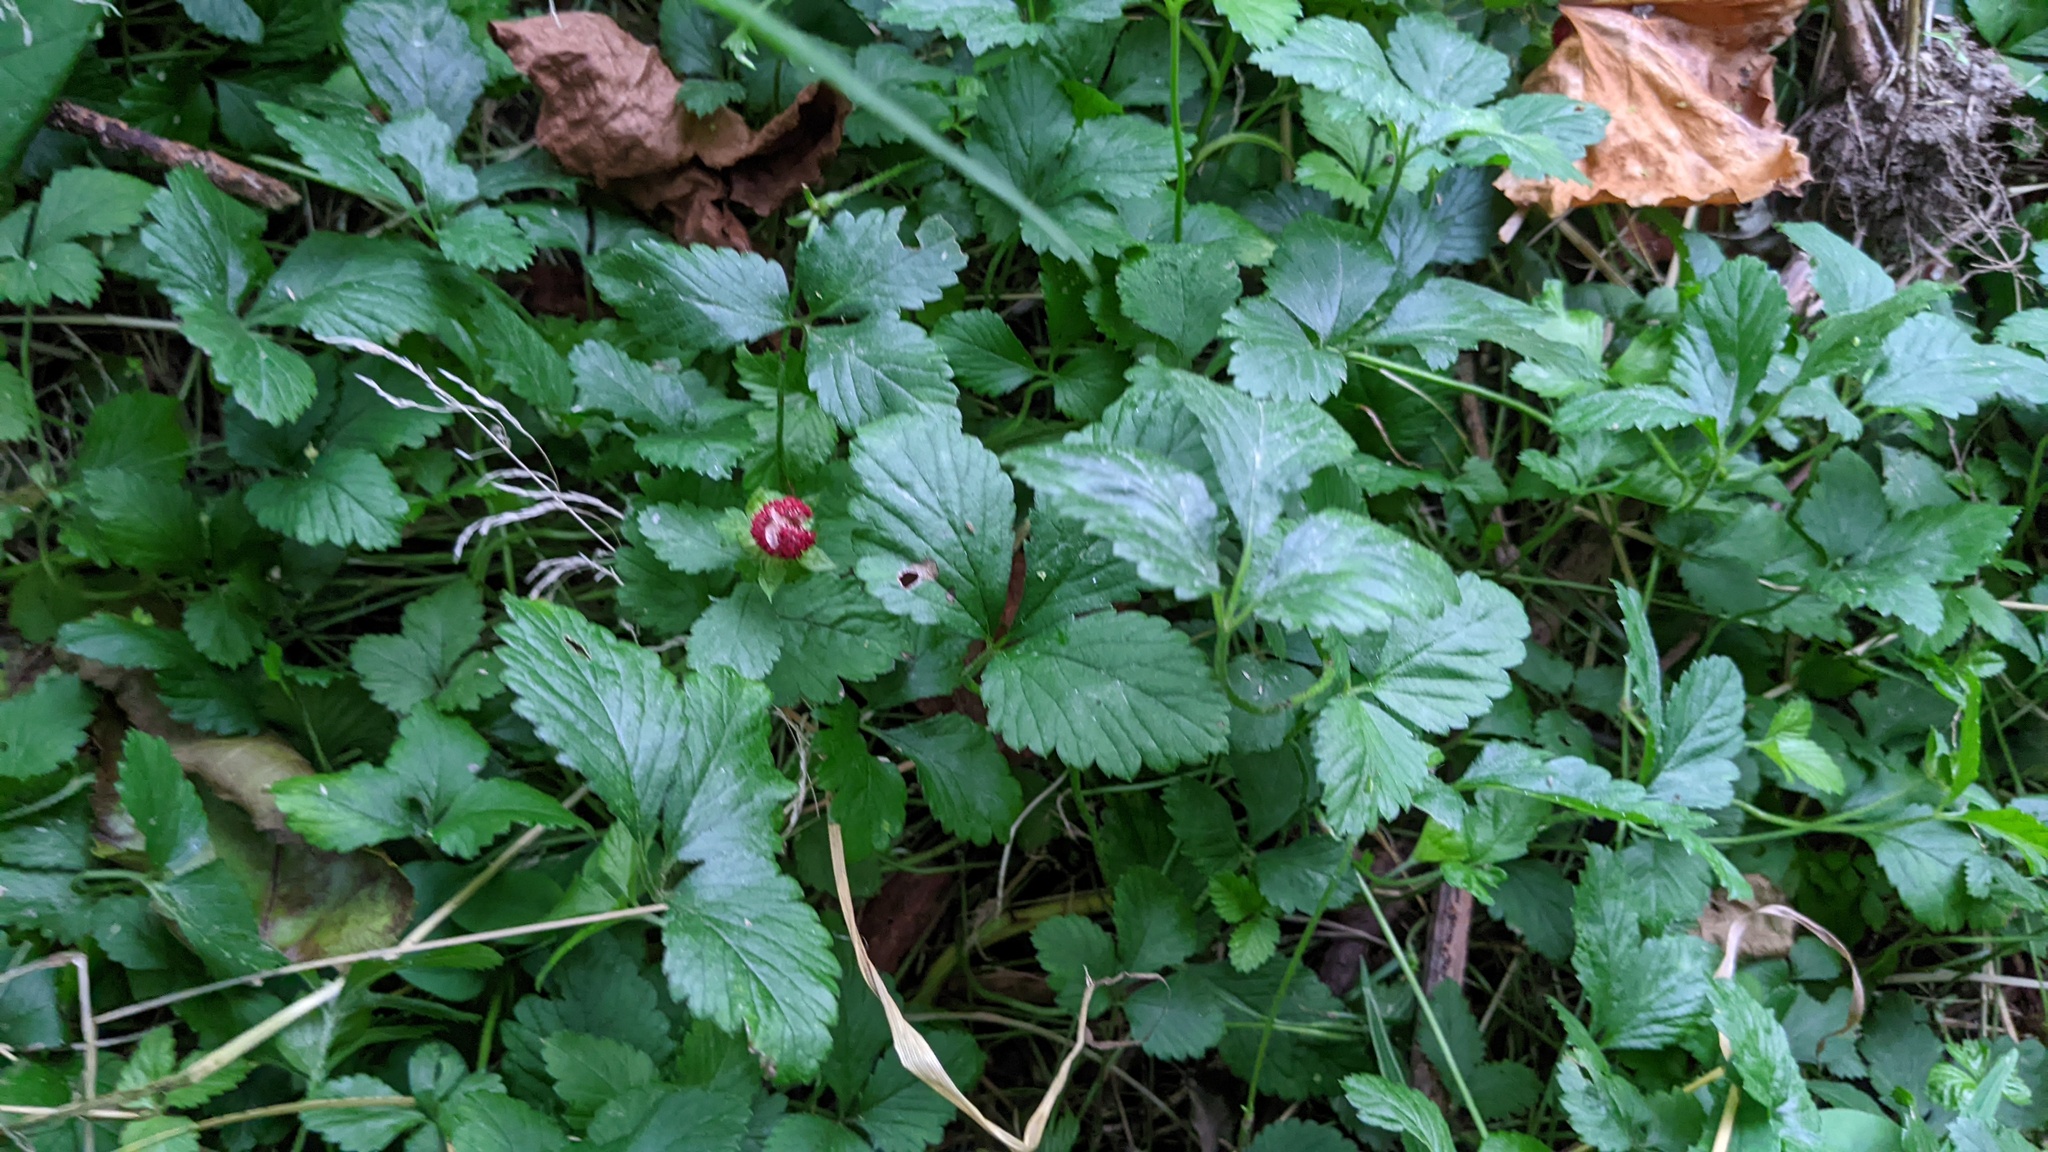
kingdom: Plantae
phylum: Tracheophyta
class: Magnoliopsida
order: Rosales
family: Rosaceae
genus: Potentilla
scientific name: Potentilla indica
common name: Yellow-flowered strawberry
